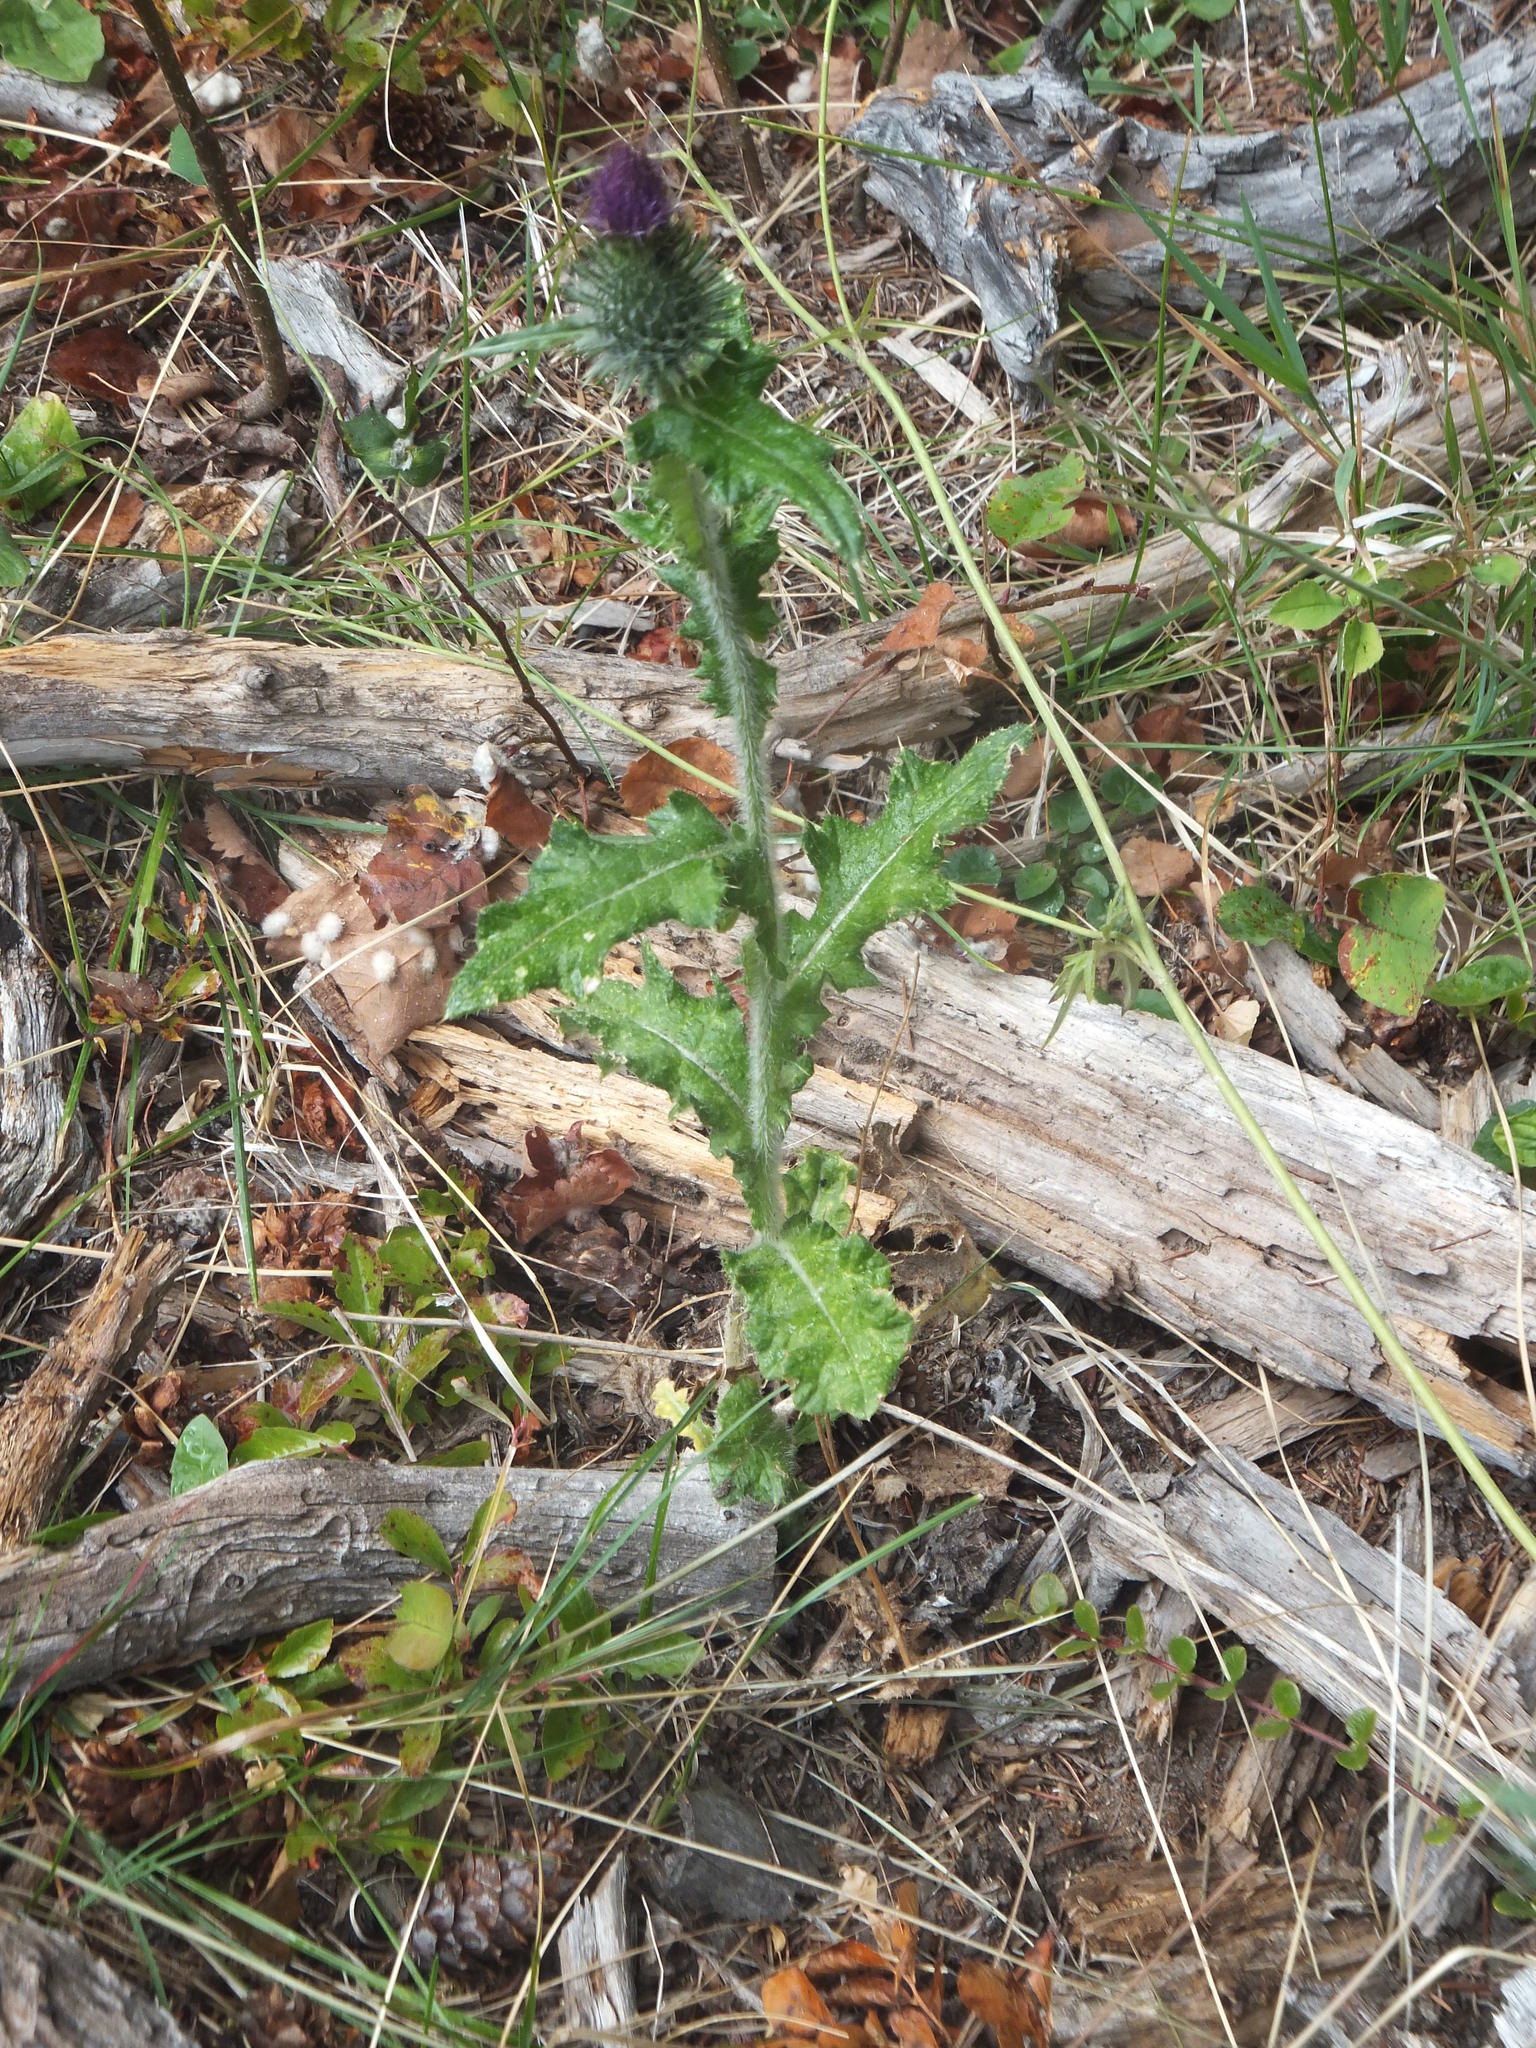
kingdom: Plantae
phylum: Tracheophyta
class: Magnoliopsida
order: Asterales
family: Asteraceae
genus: Cirsium
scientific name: Cirsium vulgare
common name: Bull thistle
